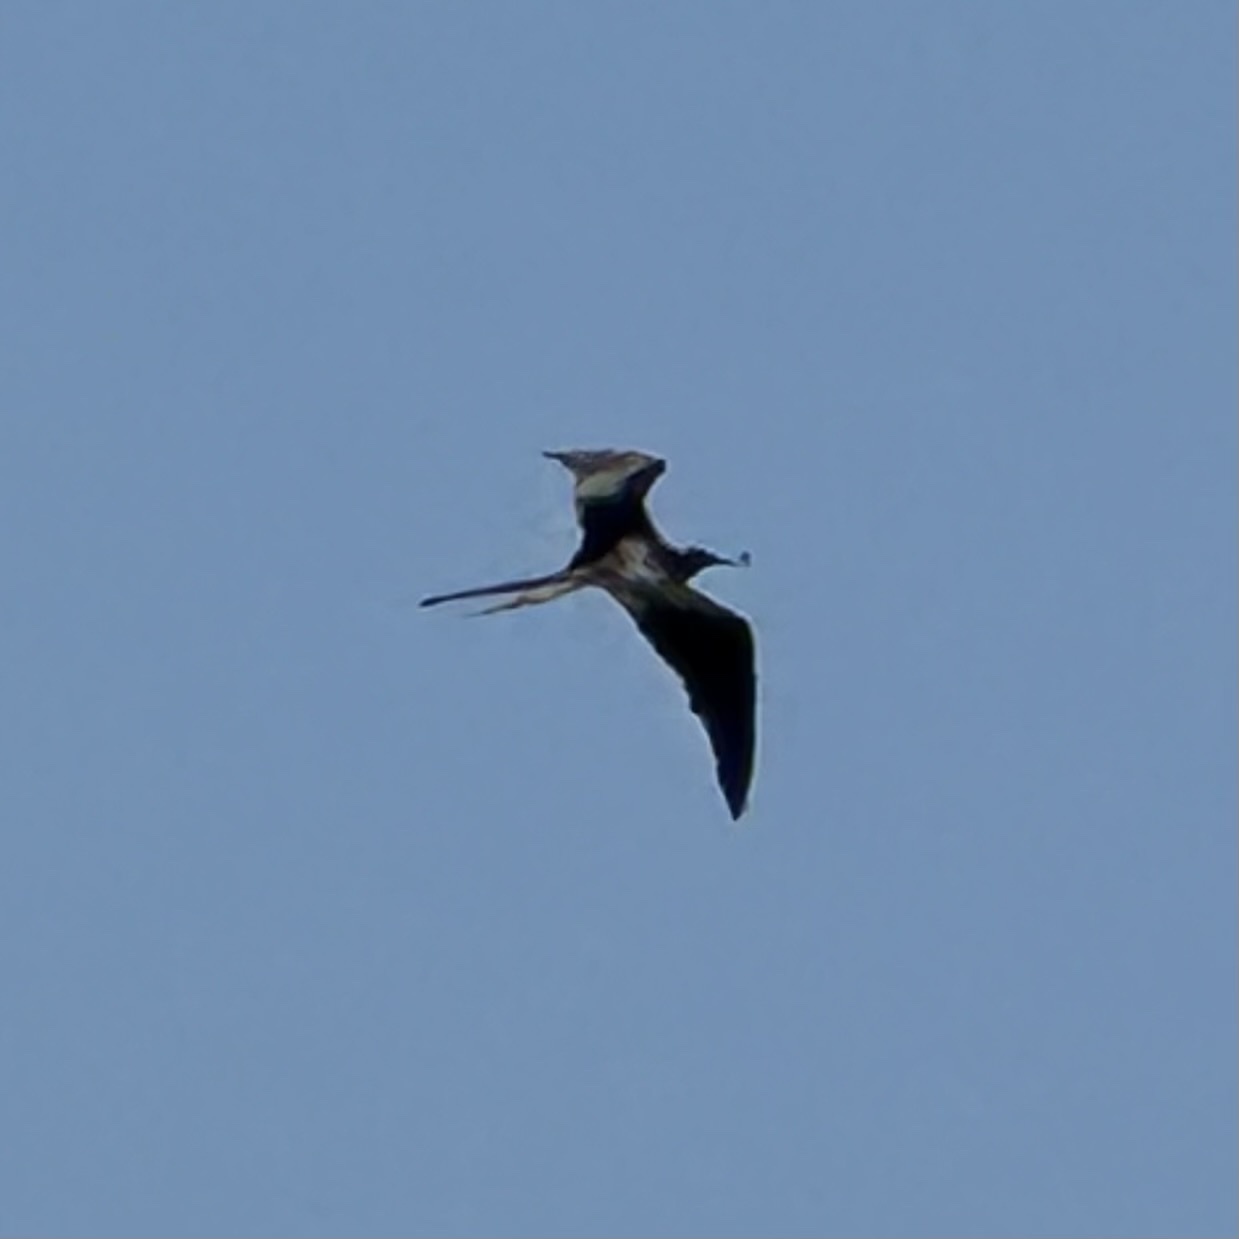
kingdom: Animalia
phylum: Chordata
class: Aves
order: Suliformes
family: Fregatidae
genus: Fregata
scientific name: Fregata magnificens
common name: Magnificent frigatebird
